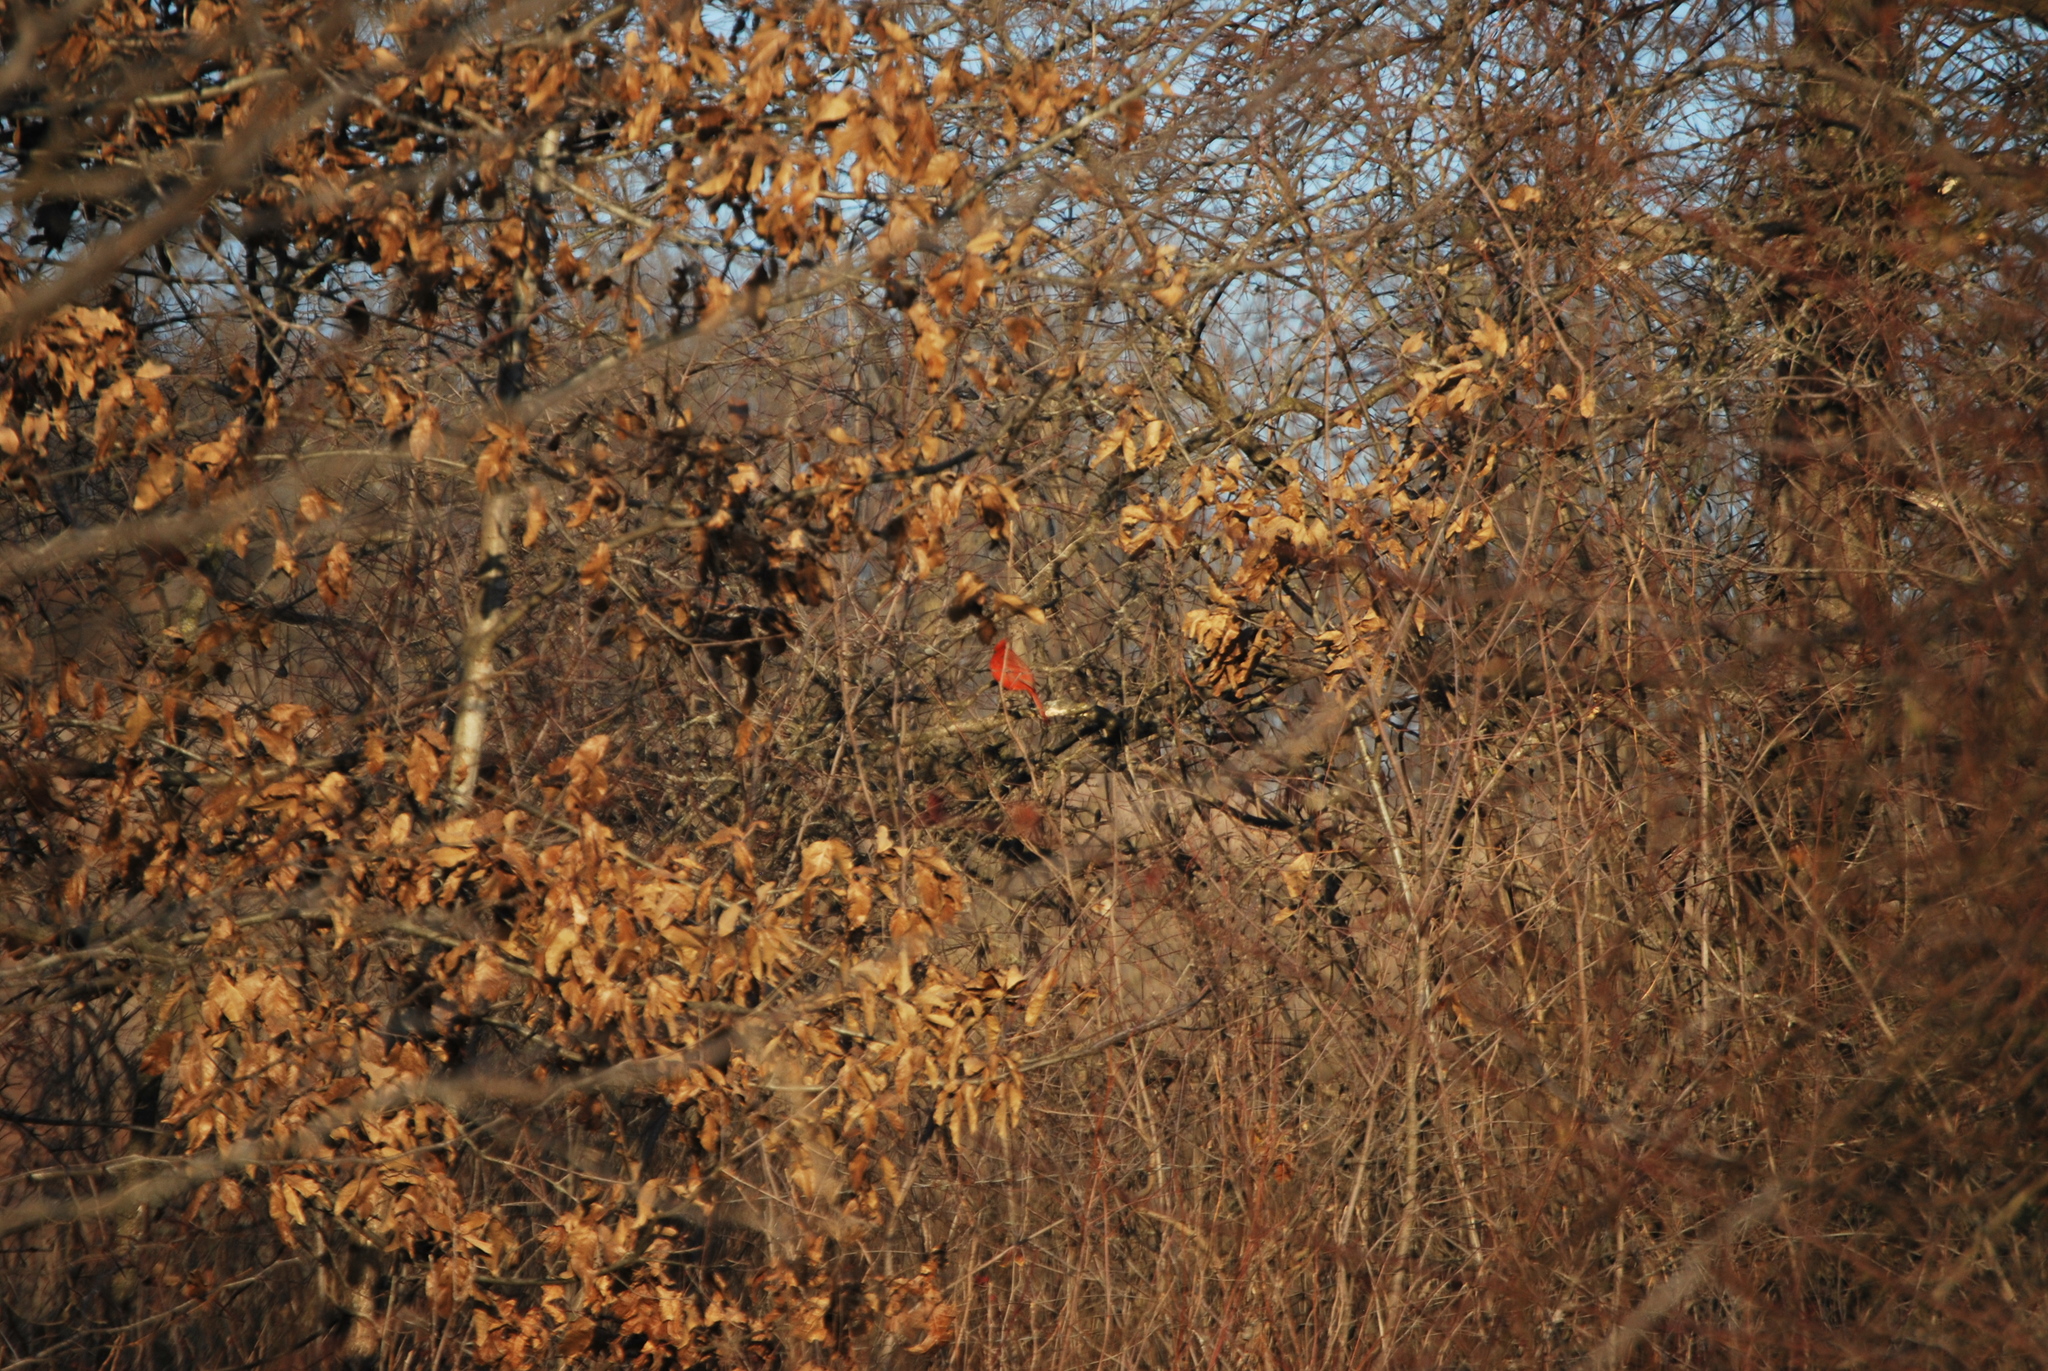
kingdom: Animalia
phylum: Chordata
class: Aves
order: Passeriformes
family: Cardinalidae
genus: Cardinalis
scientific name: Cardinalis cardinalis
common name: Northern cardinal
